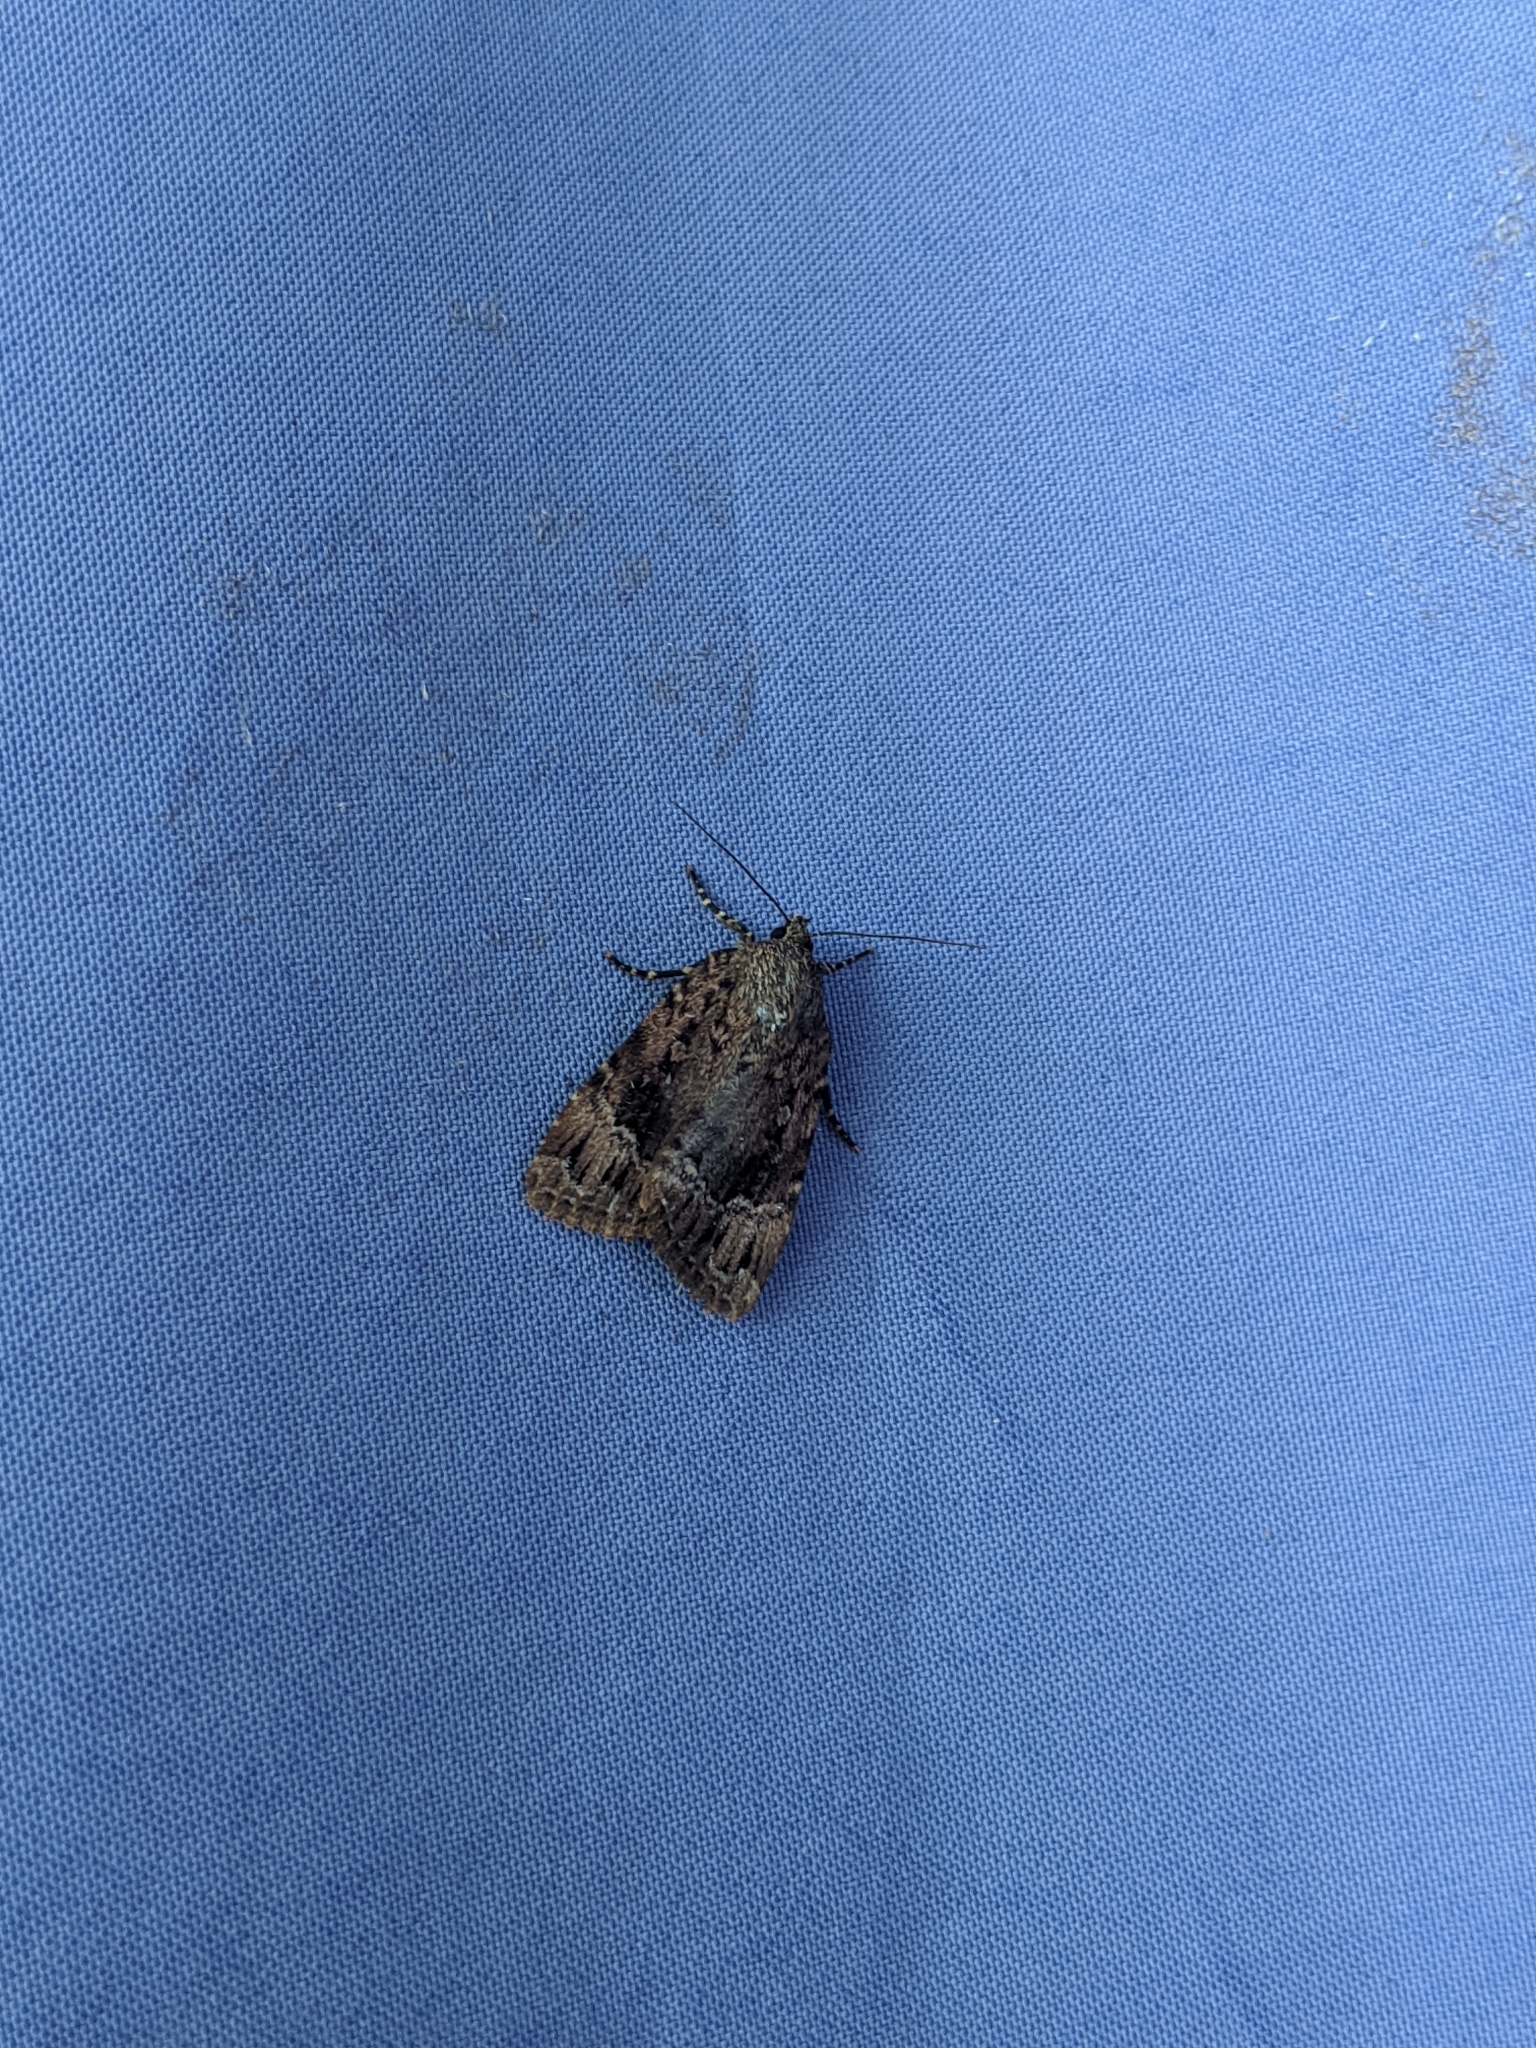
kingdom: Animalia
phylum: Arthropoda
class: Insecta
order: Lepidoptera
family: Noctuidae
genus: Amphipyra
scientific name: Amphipyra pyramidoides
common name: American copper underwing
